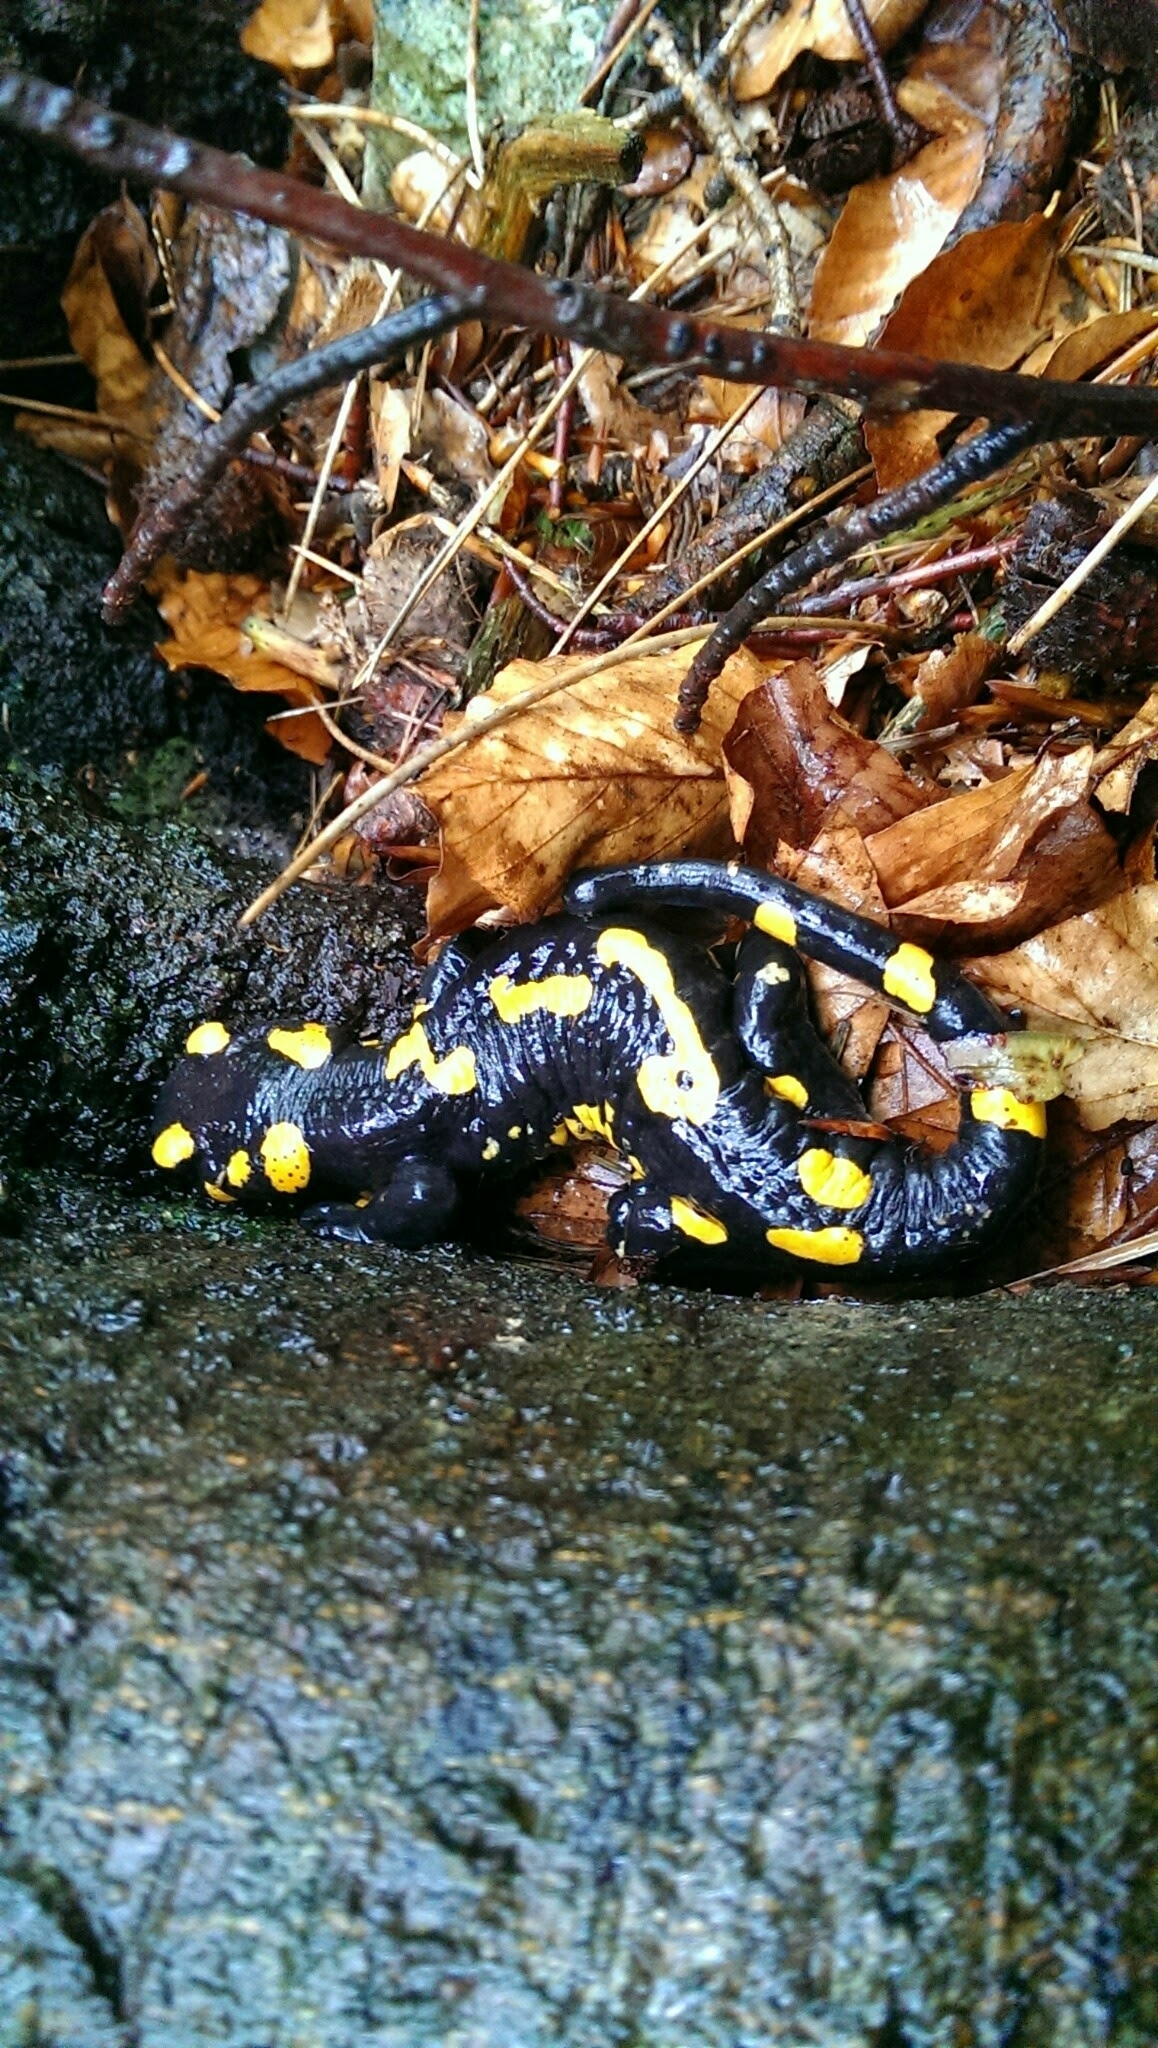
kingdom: Animalia
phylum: Chordata
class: Amphibia
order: Caudata
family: Salamandridae
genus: Salamandra
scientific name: Salamandra salamandra
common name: Fire salamander
